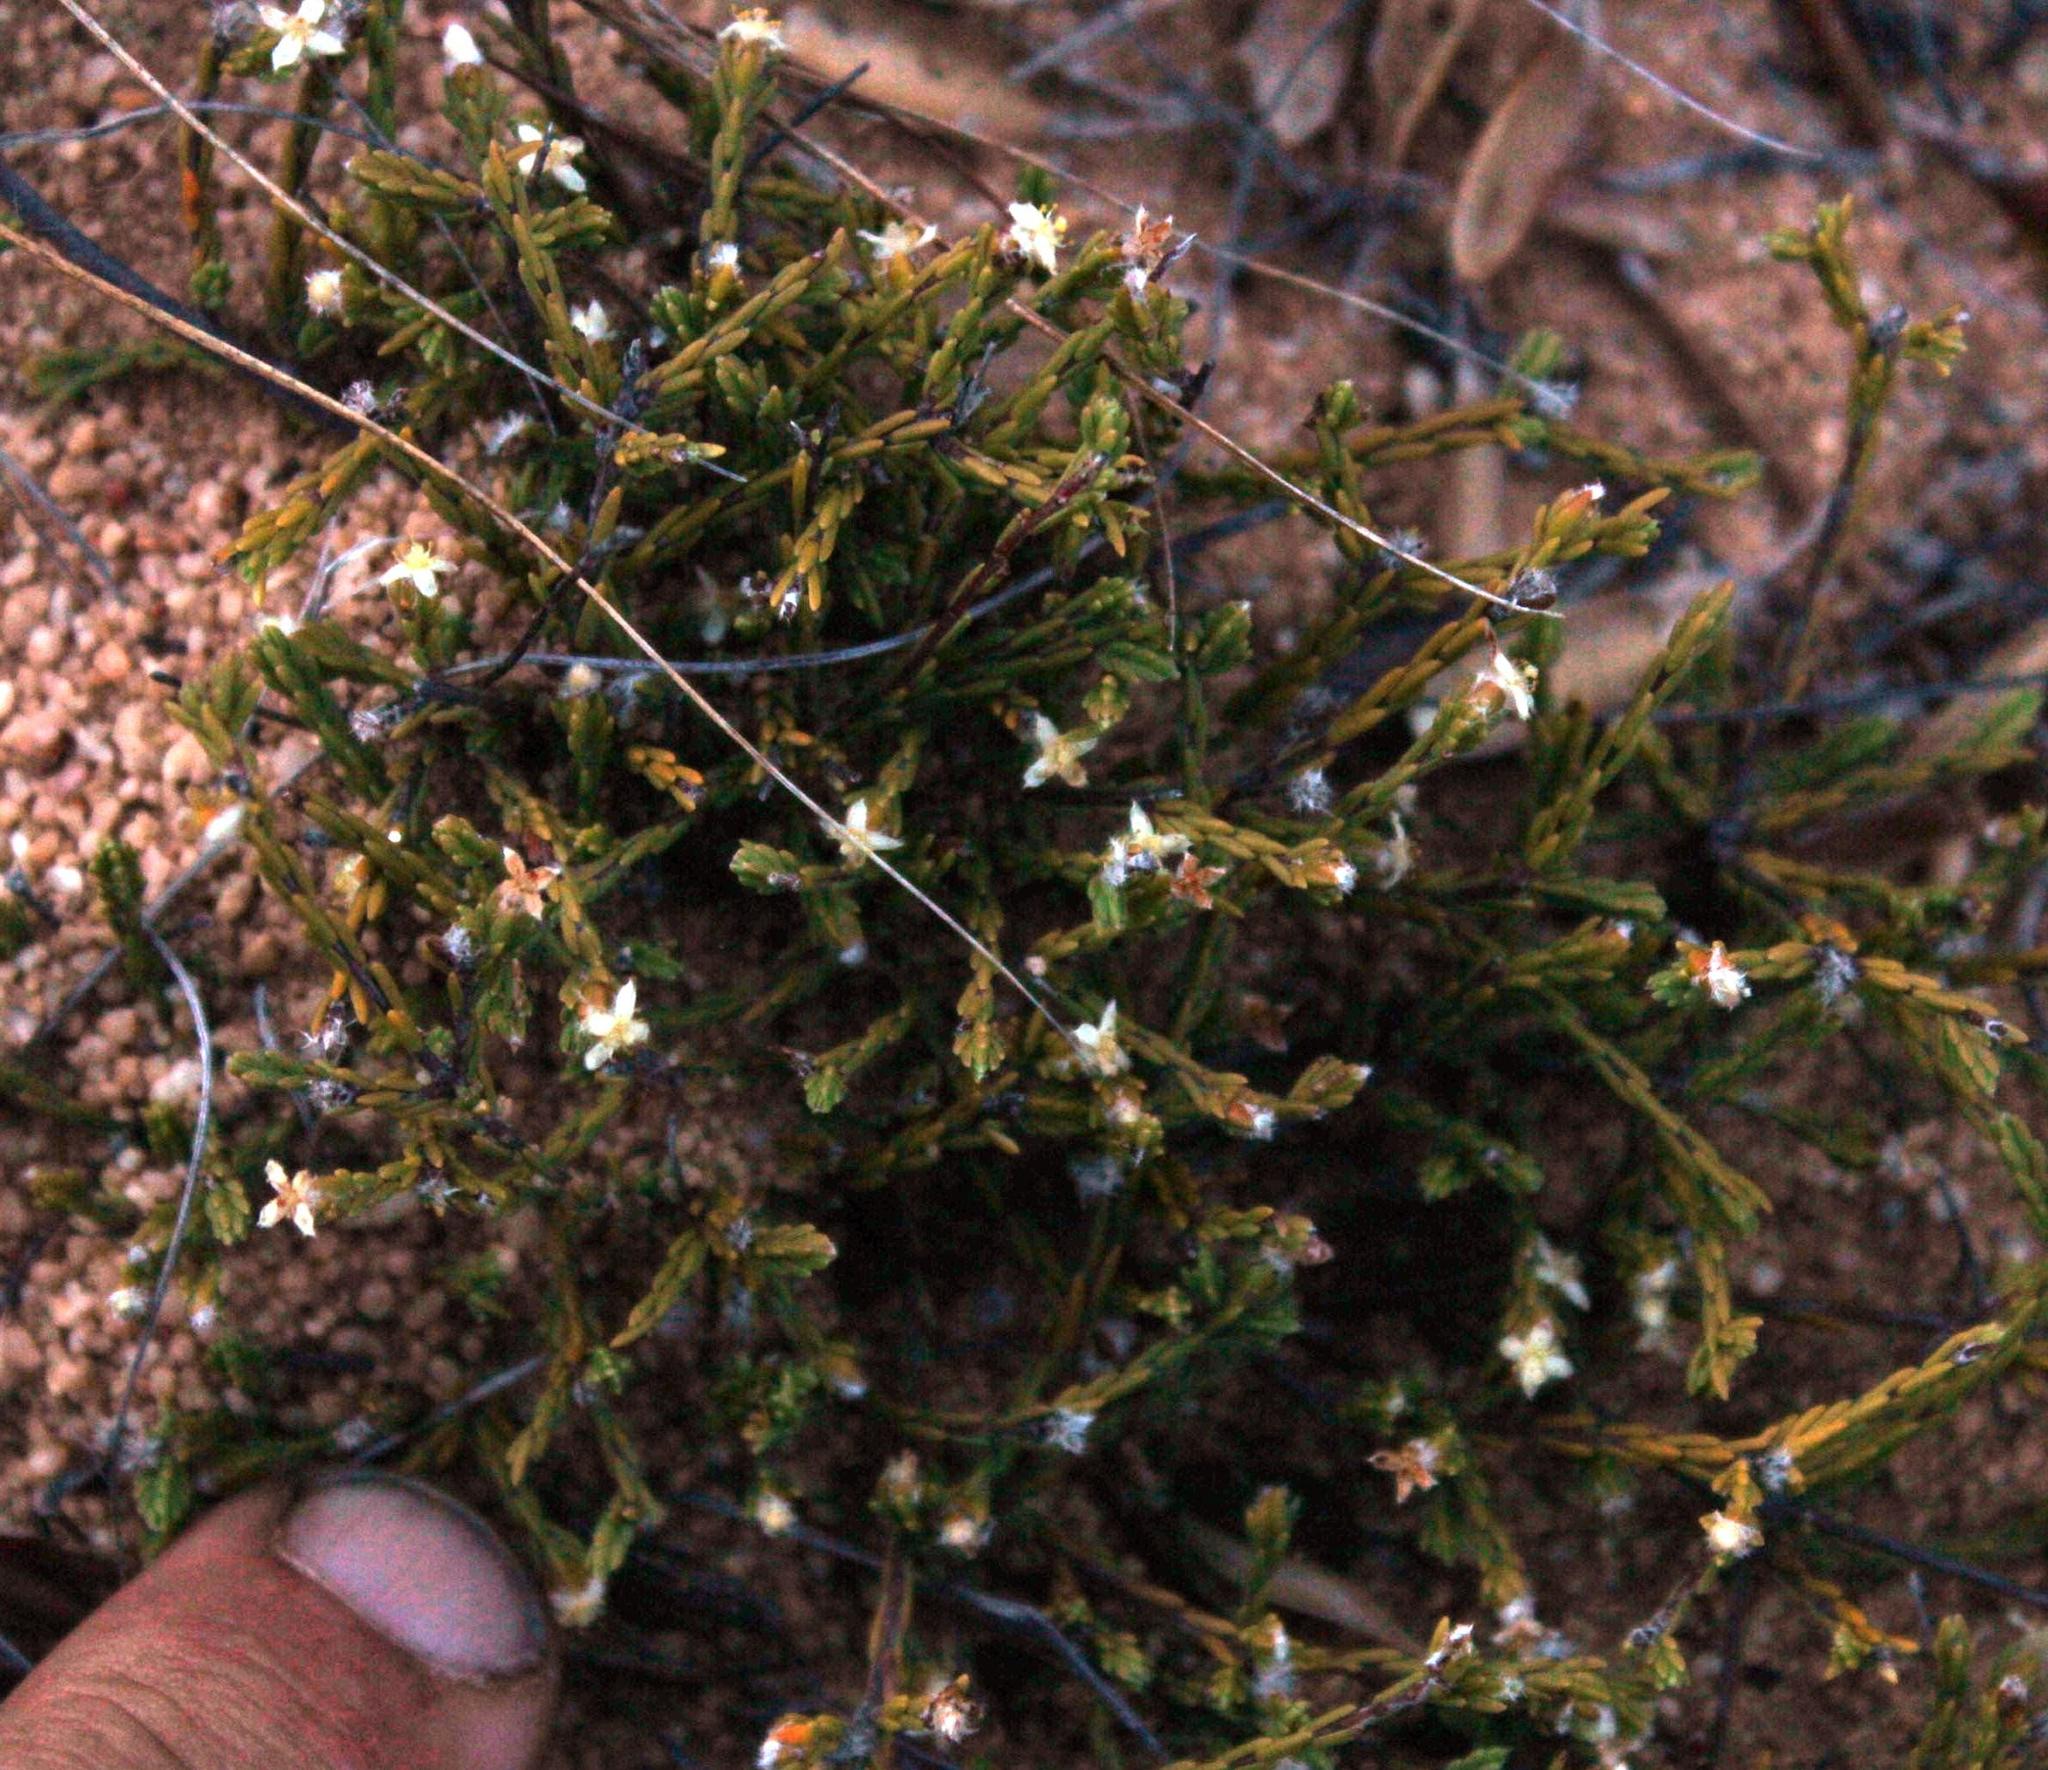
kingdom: Plantae
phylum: Tracheophyta
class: Magnoliopsida
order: Malvales
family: Thymelaeaceae
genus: Lachnaea
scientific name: Lachnaea elsieae
